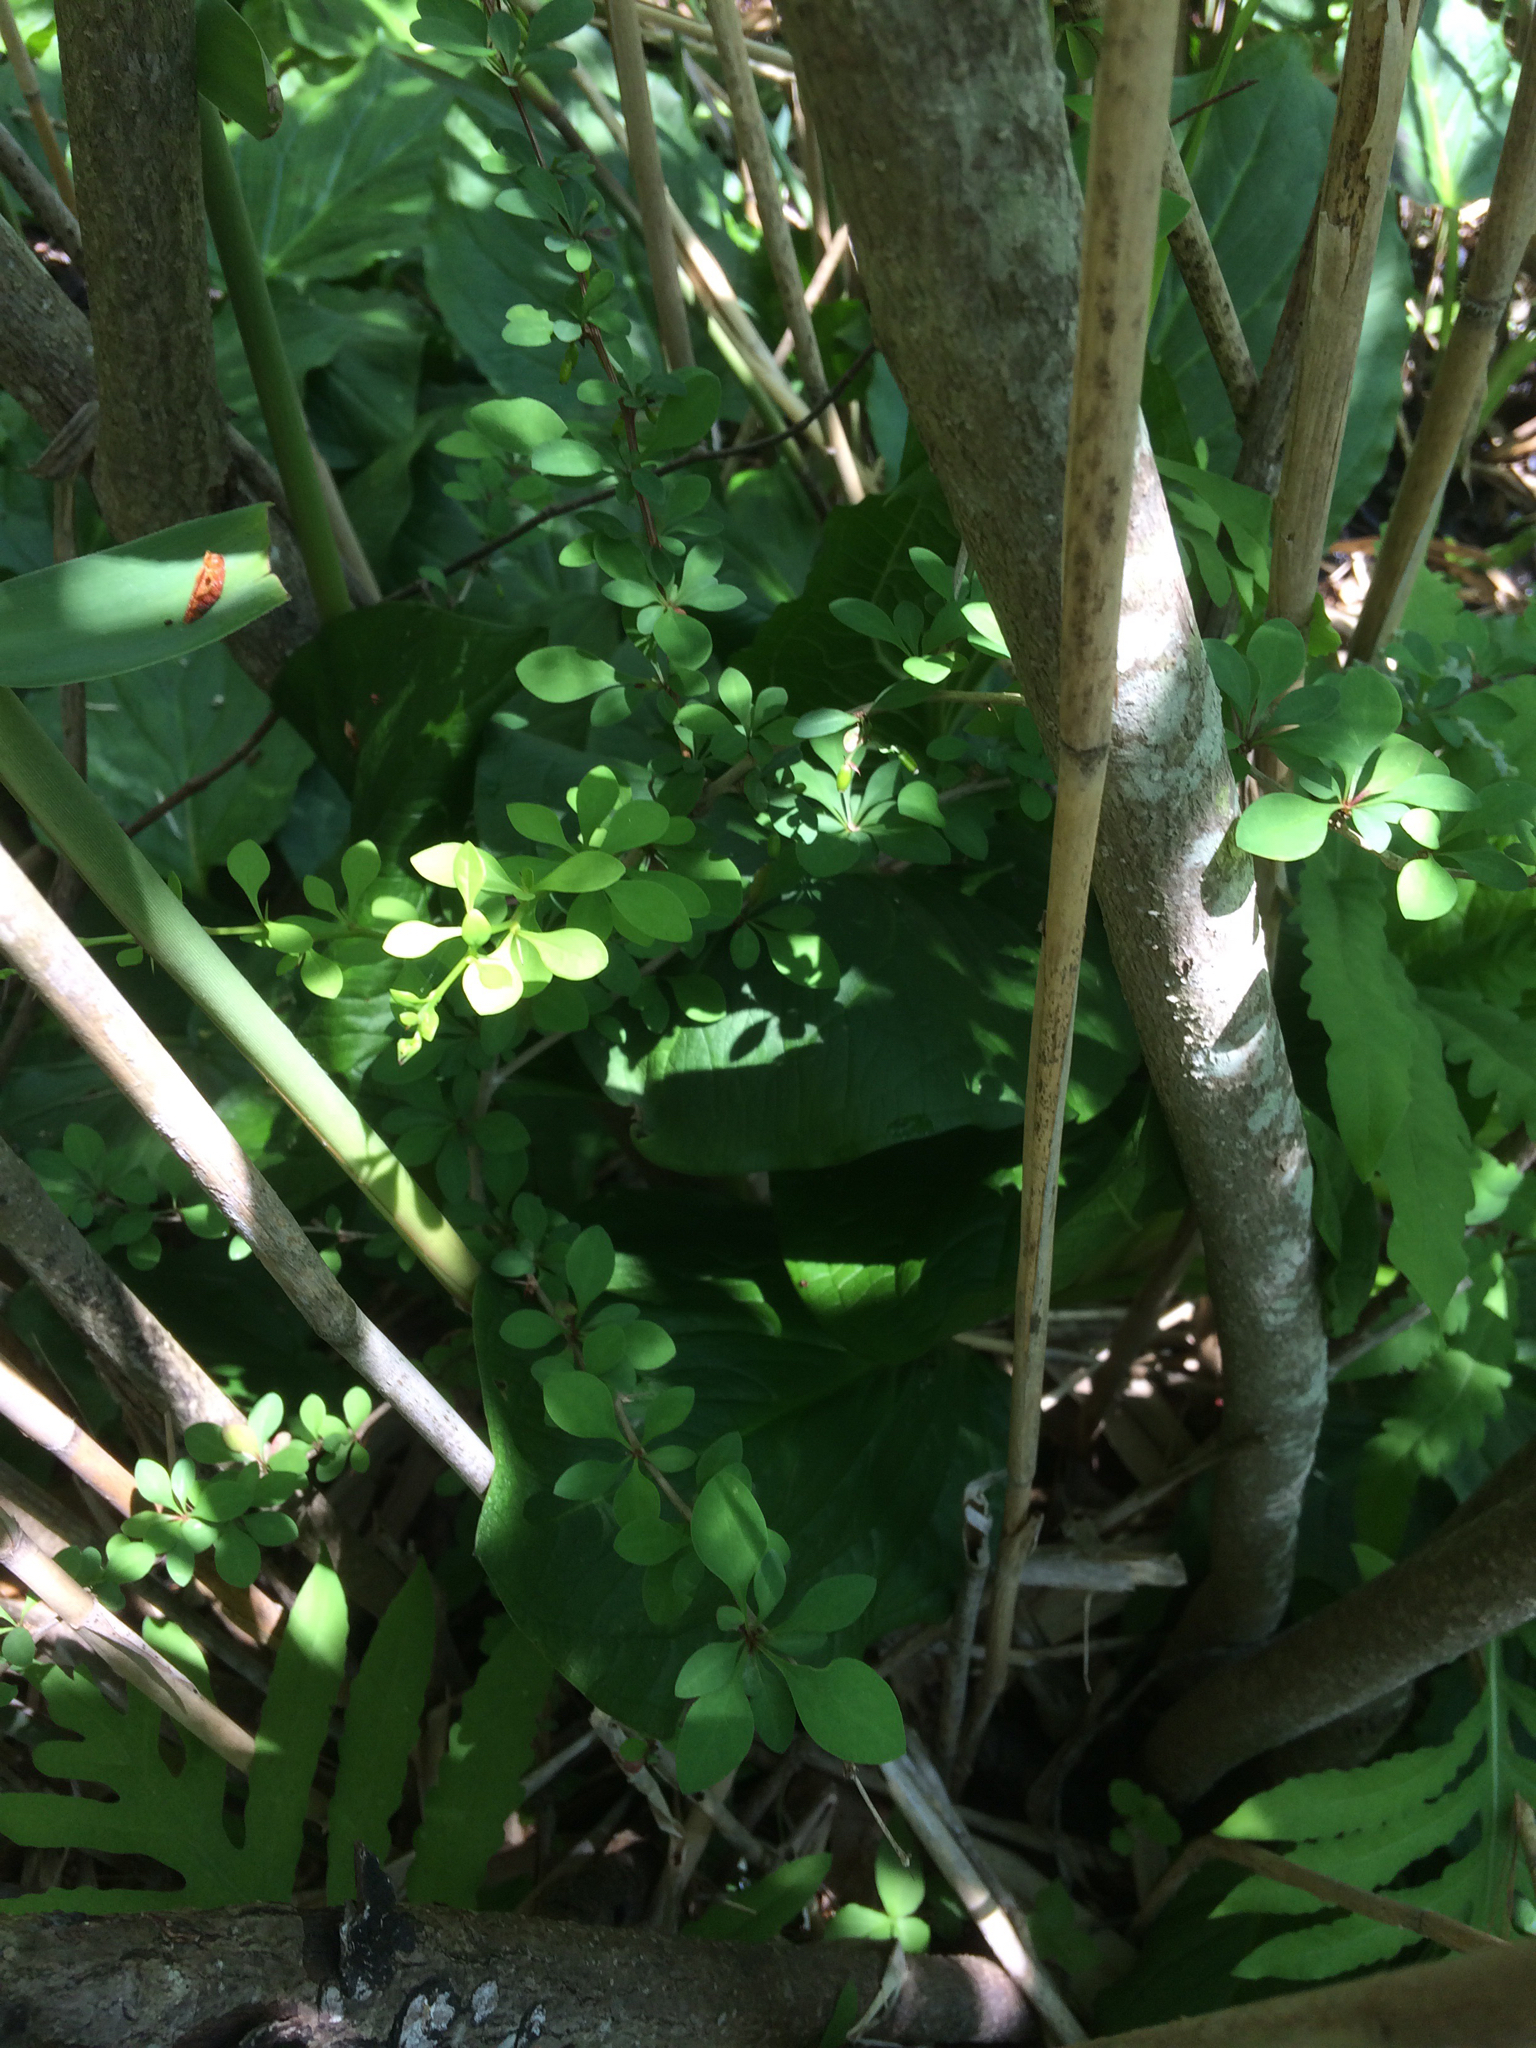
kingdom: Plantae
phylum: Tracheophyta
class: Magnoliopsida
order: Ranunculales
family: Berberidaceae
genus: Berberis
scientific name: Berberis thunbergii
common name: Japanese barberry
